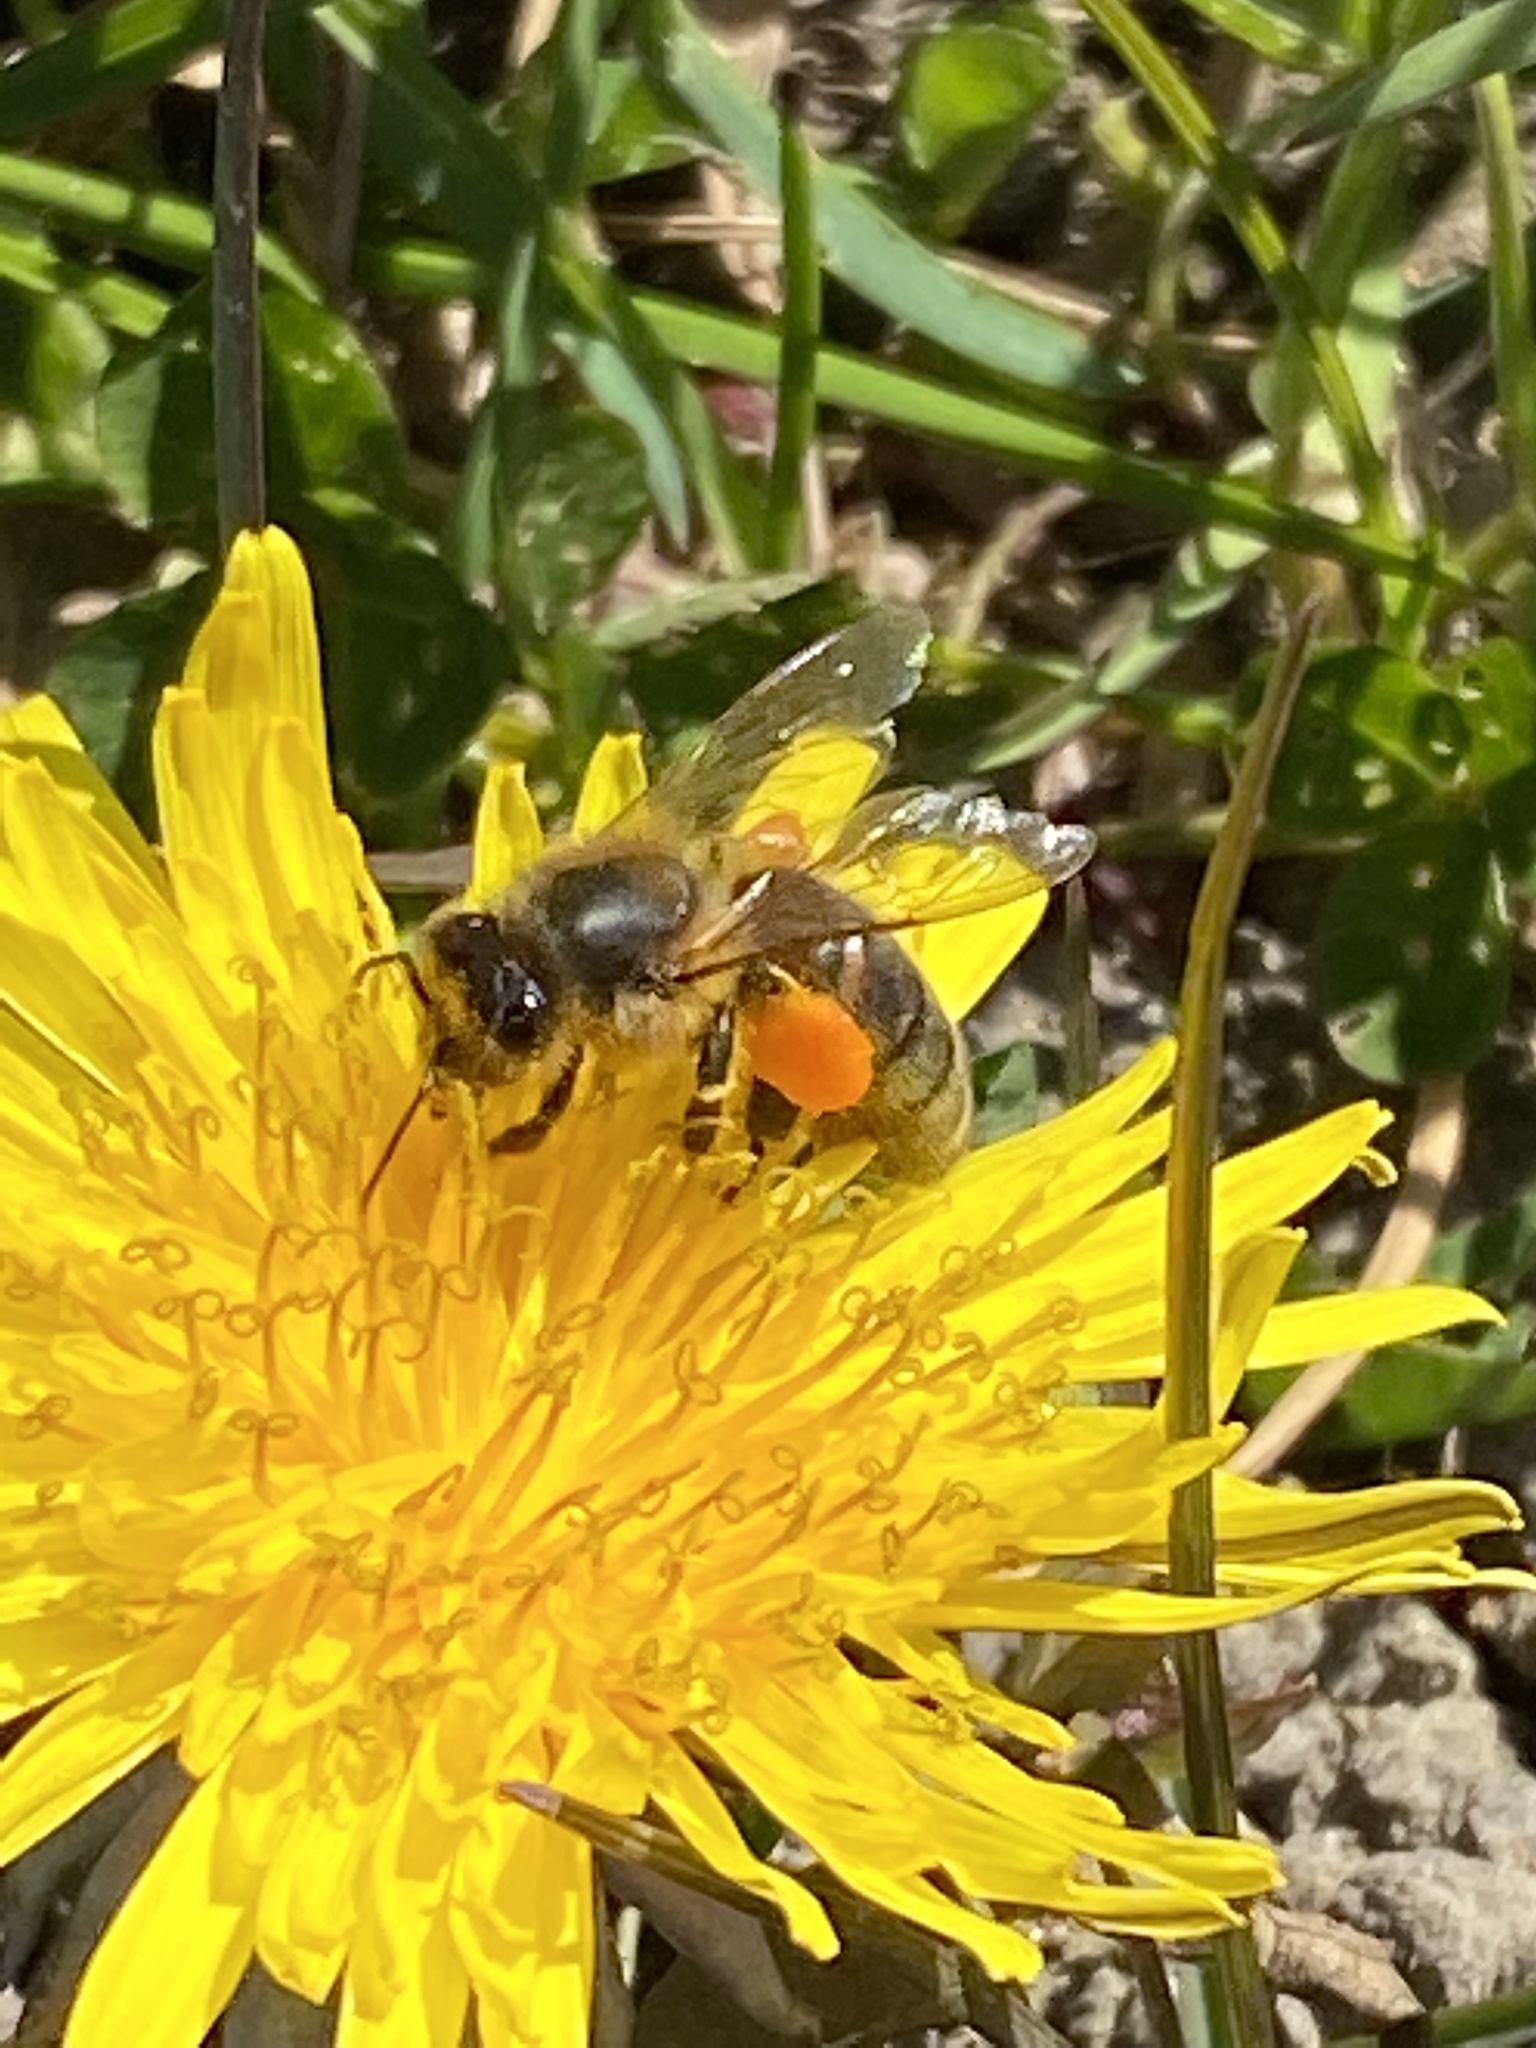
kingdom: Animalia
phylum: Arthropoda
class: Insecta
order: Hymenoptera
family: Apidae
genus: Apis
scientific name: Apis mellifera
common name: Honey bee
